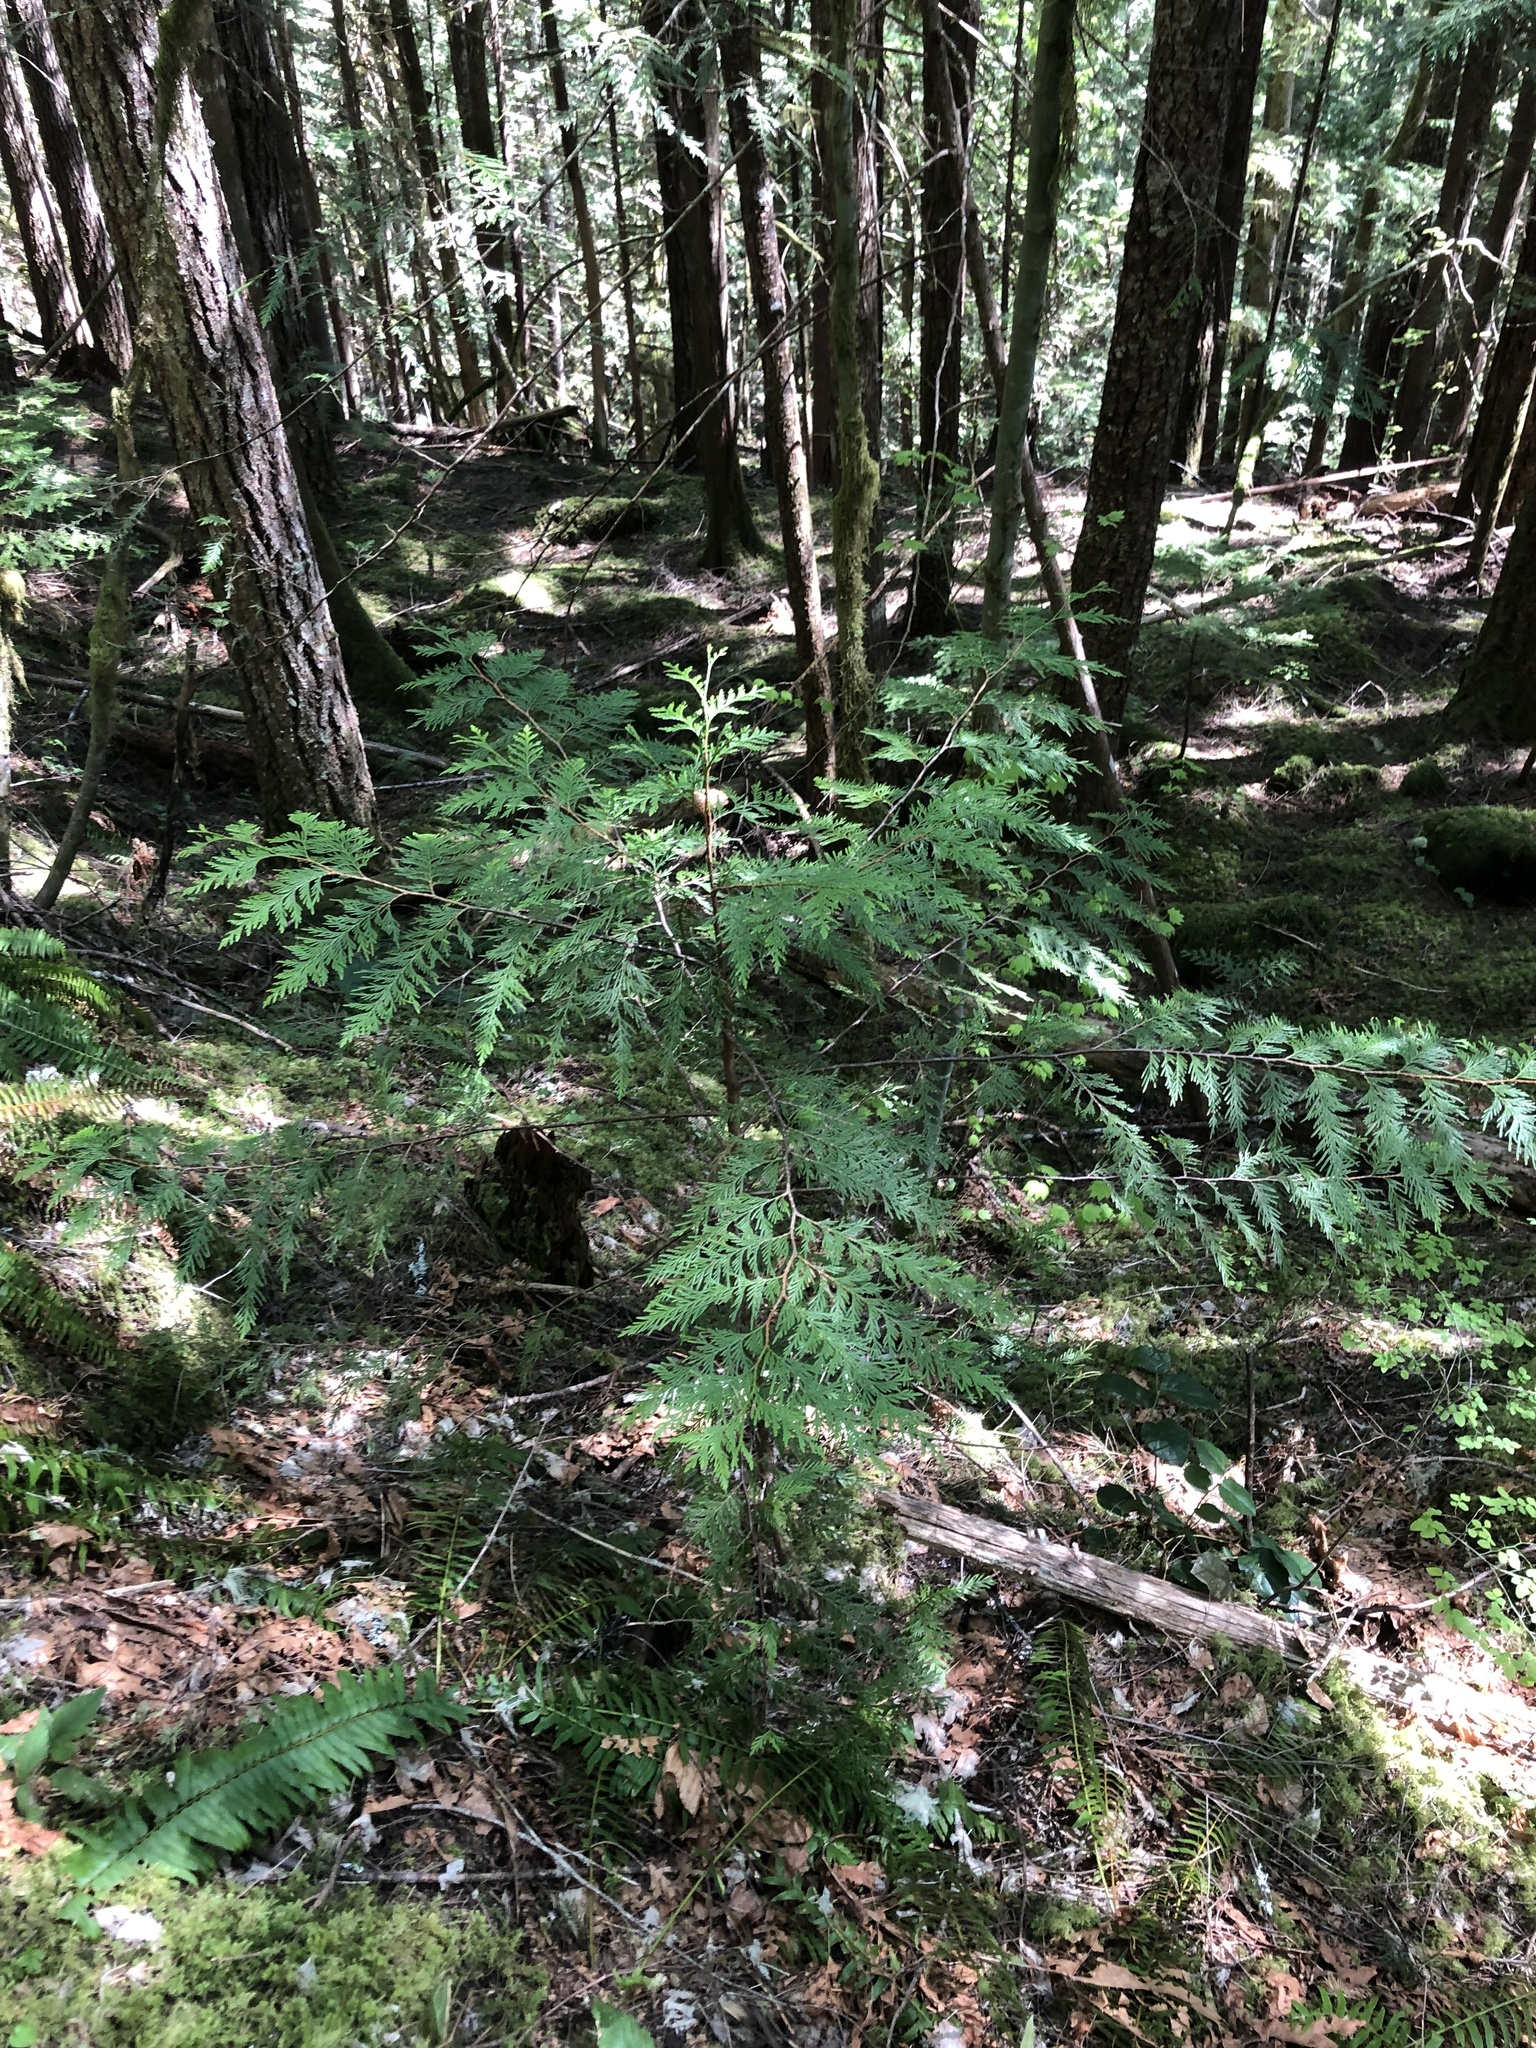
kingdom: Plantae
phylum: Tracheophyta
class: Pinopsida
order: Pinales
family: Cupressaceae
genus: Thuja
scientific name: Thuja plicata
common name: Western red-cedar
